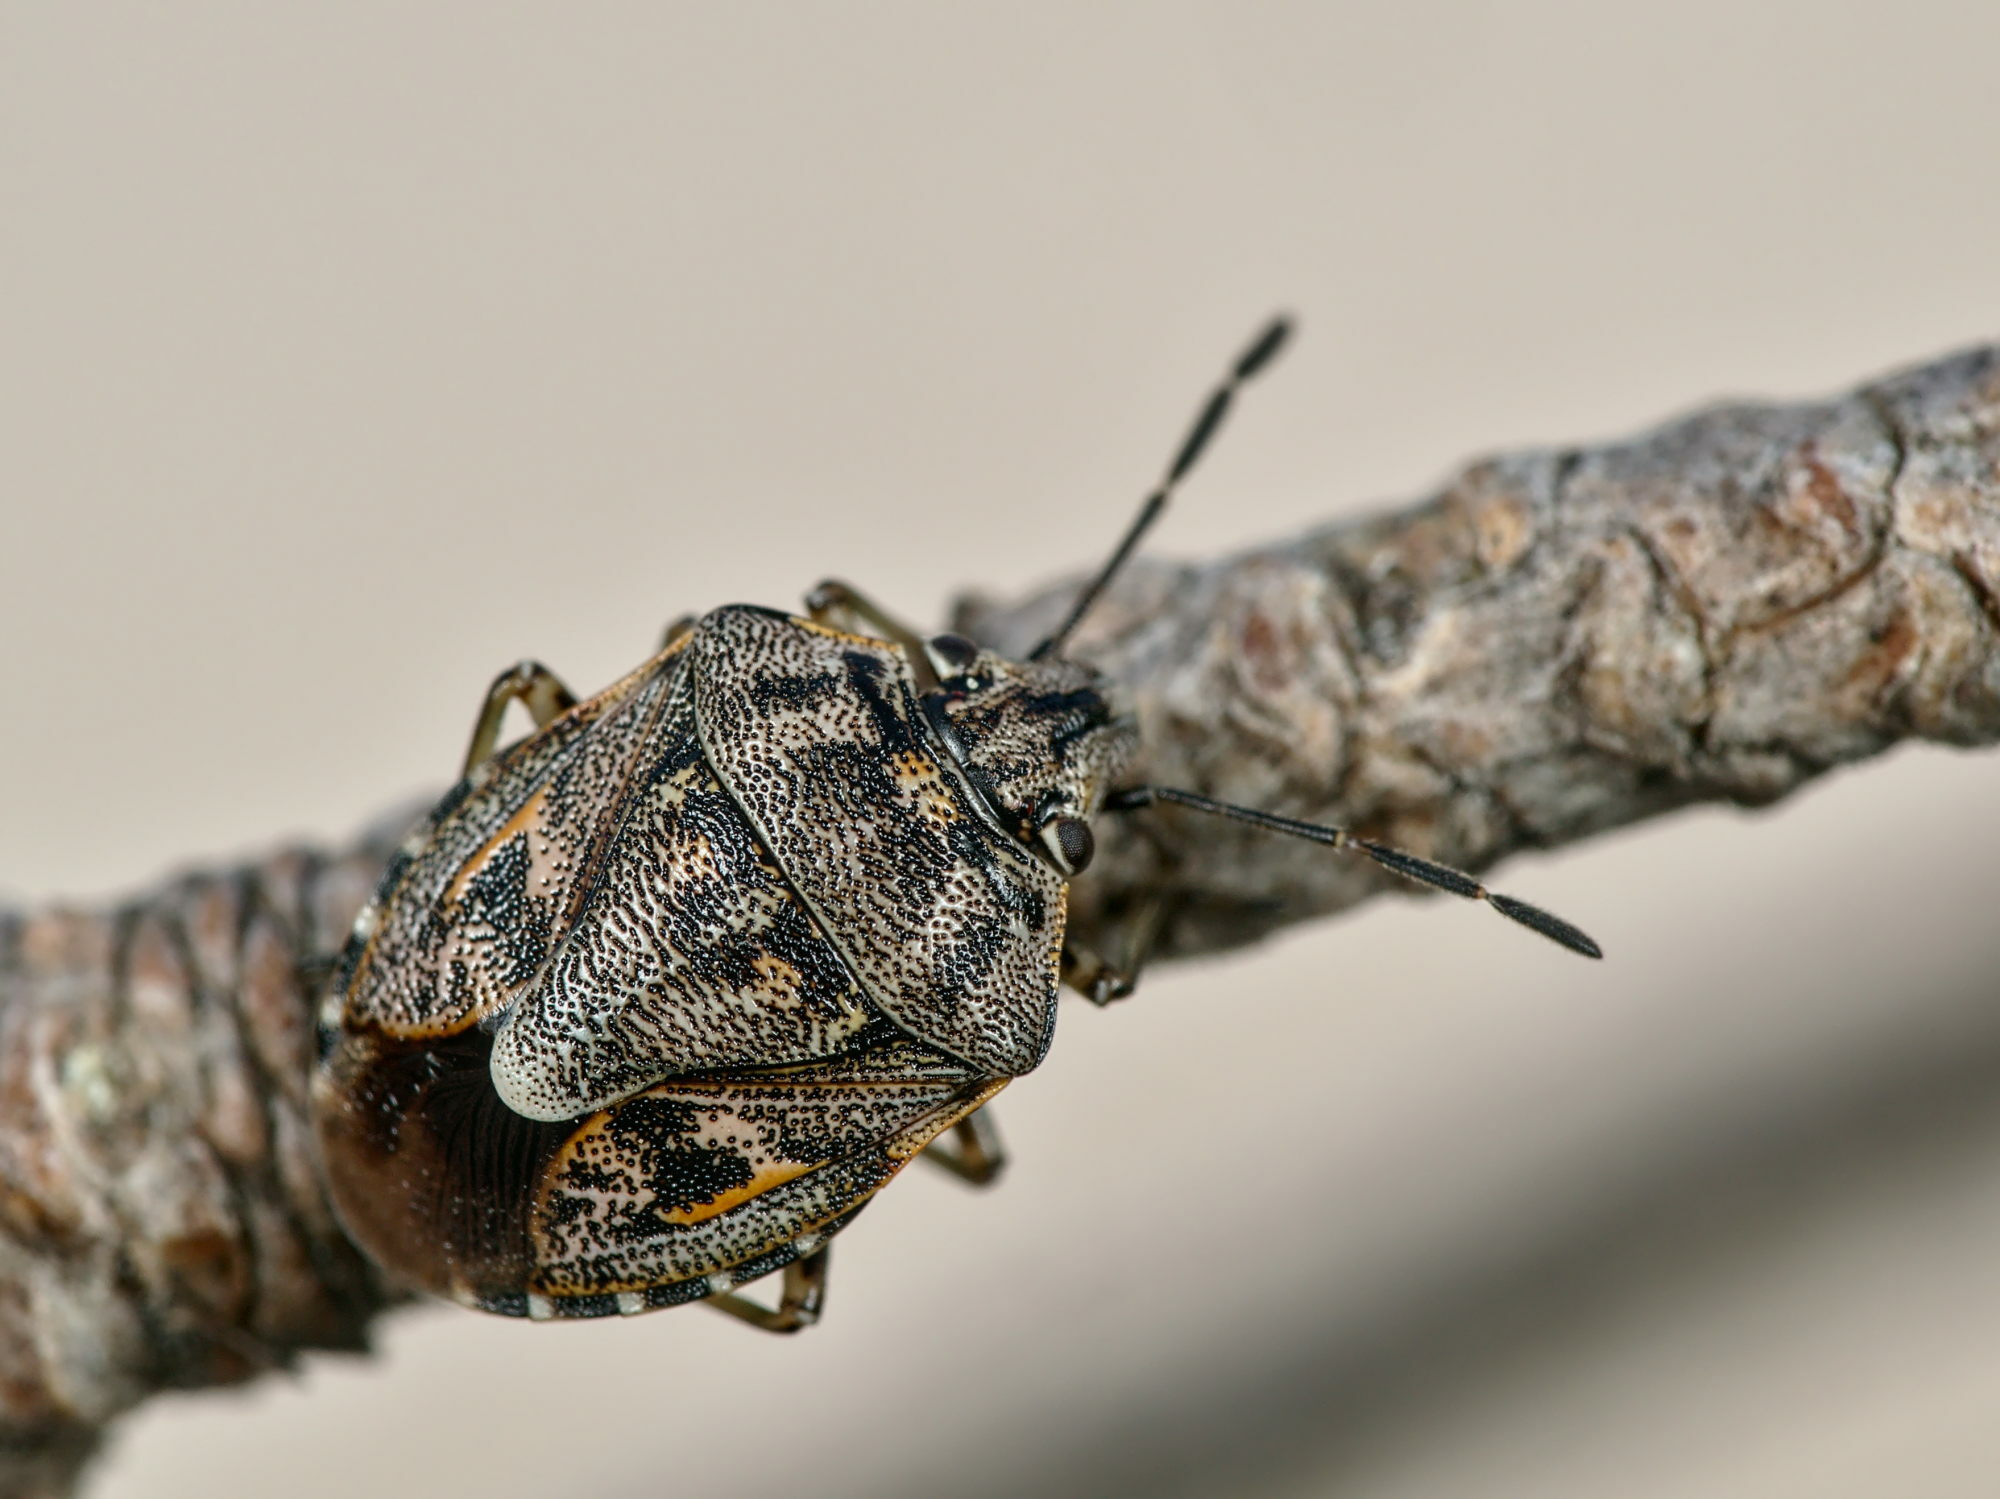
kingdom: Animalia
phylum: Arthropoda
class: Insecta
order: Hemiptera
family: Pentatomidae
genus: Holcogaster
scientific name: Holcogaster fibulata
